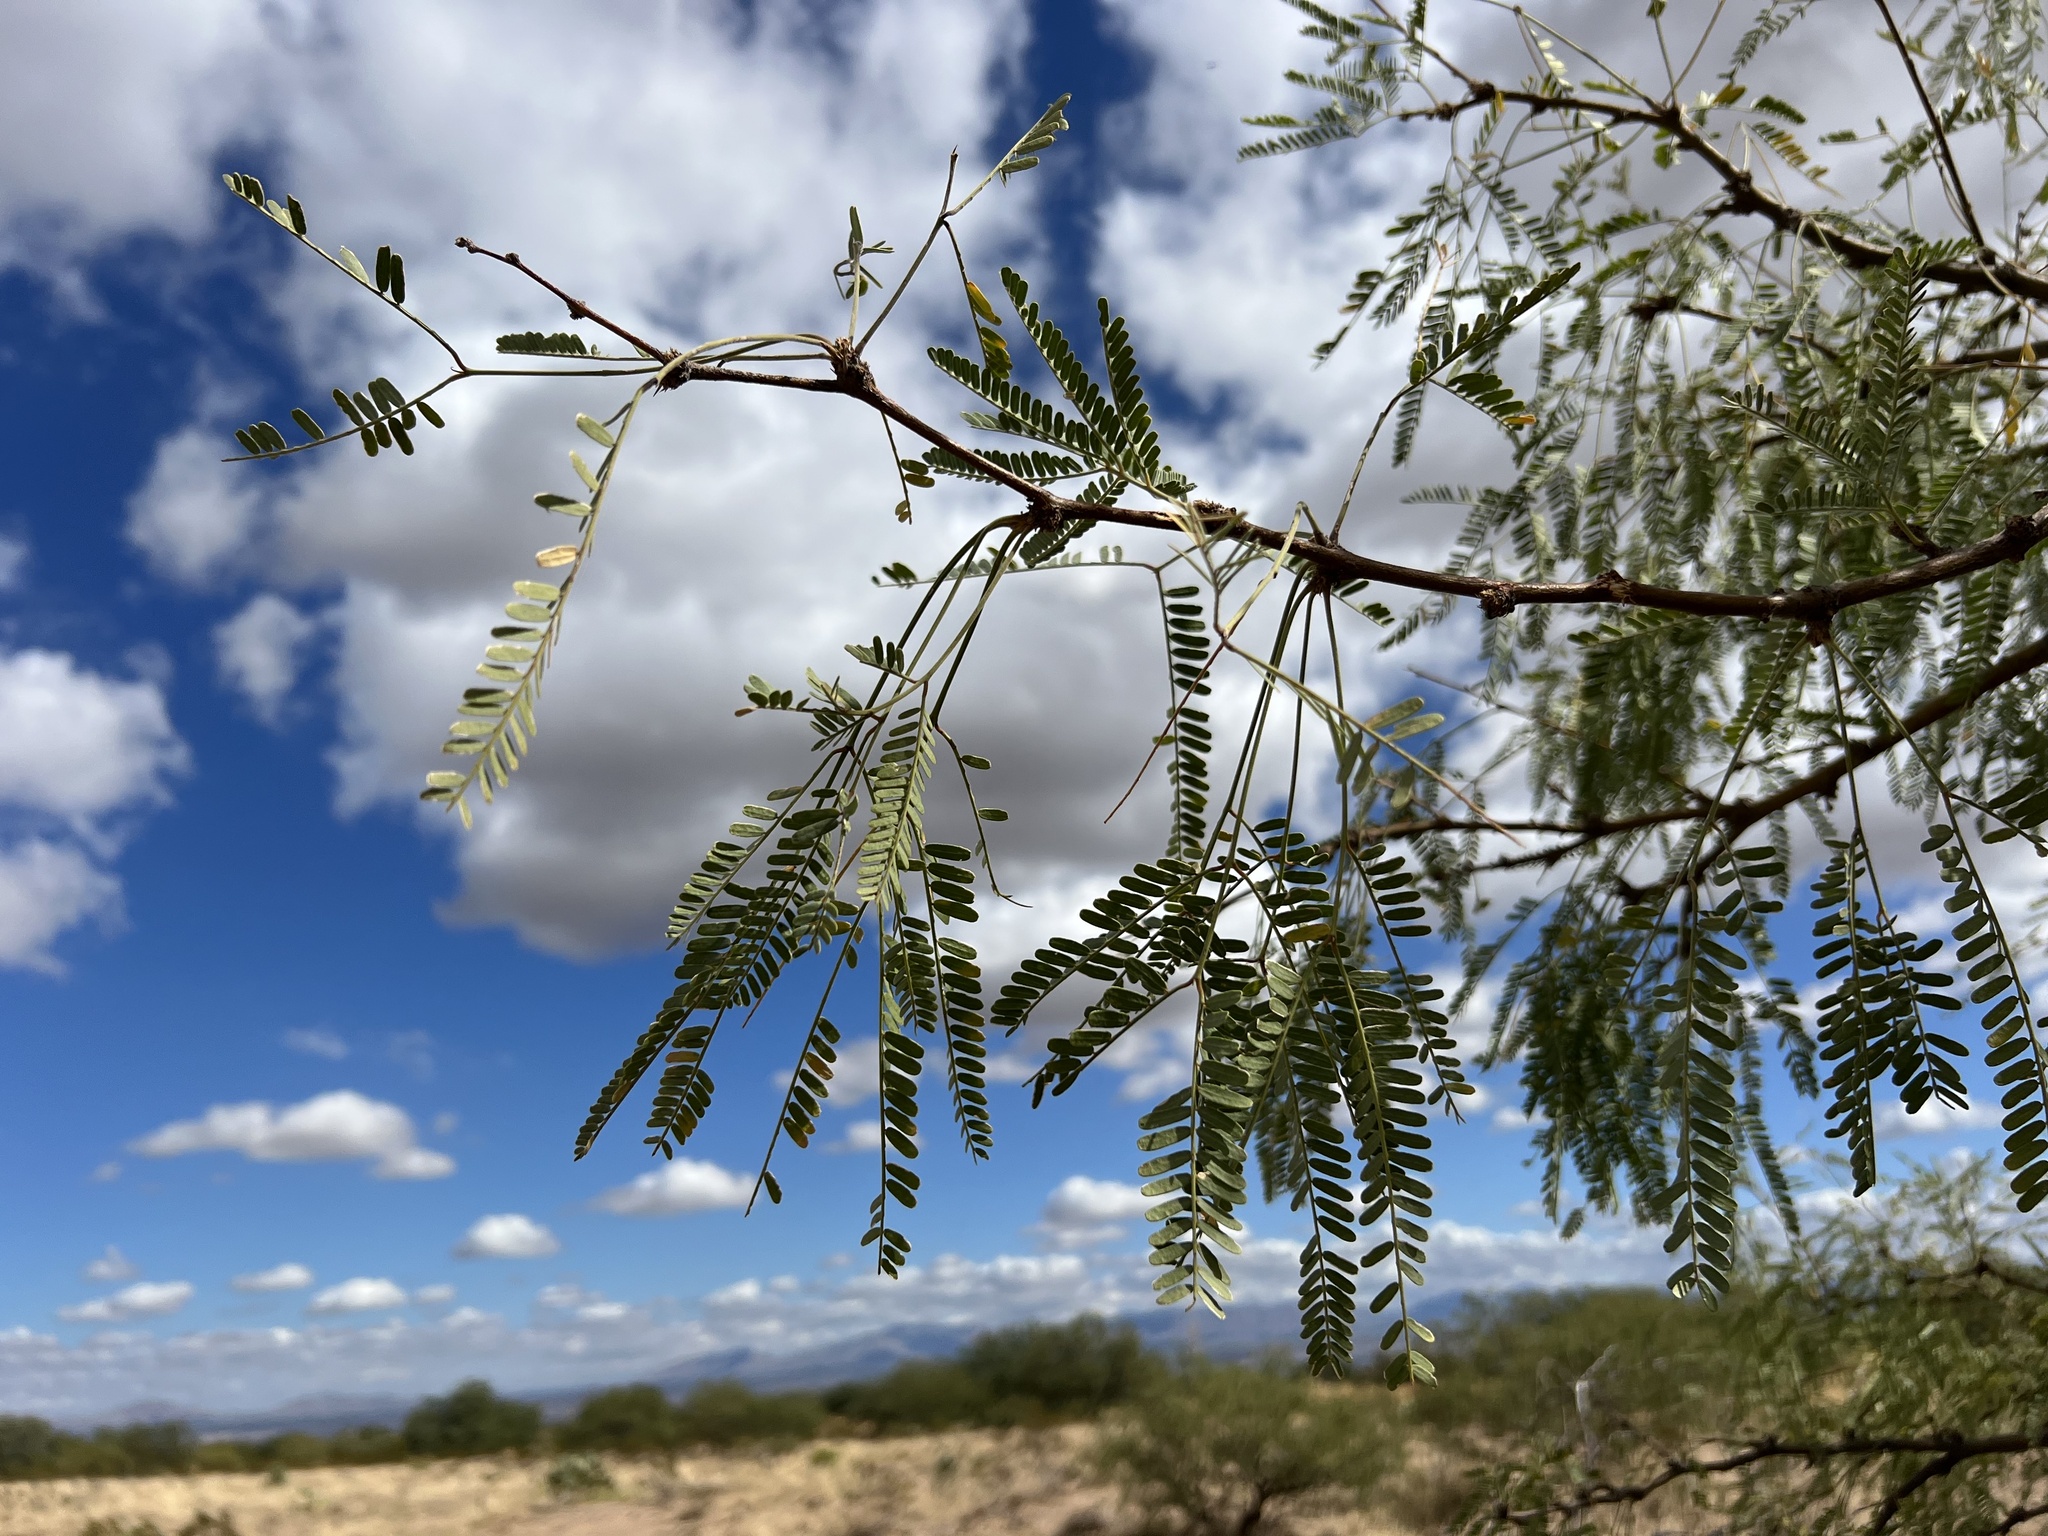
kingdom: Plantae
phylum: Tracheophyta
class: Magnoliopsida
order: Fabales
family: Fabaceae
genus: Prosopis
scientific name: Prosopis velutina
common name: Velvet mesquite
